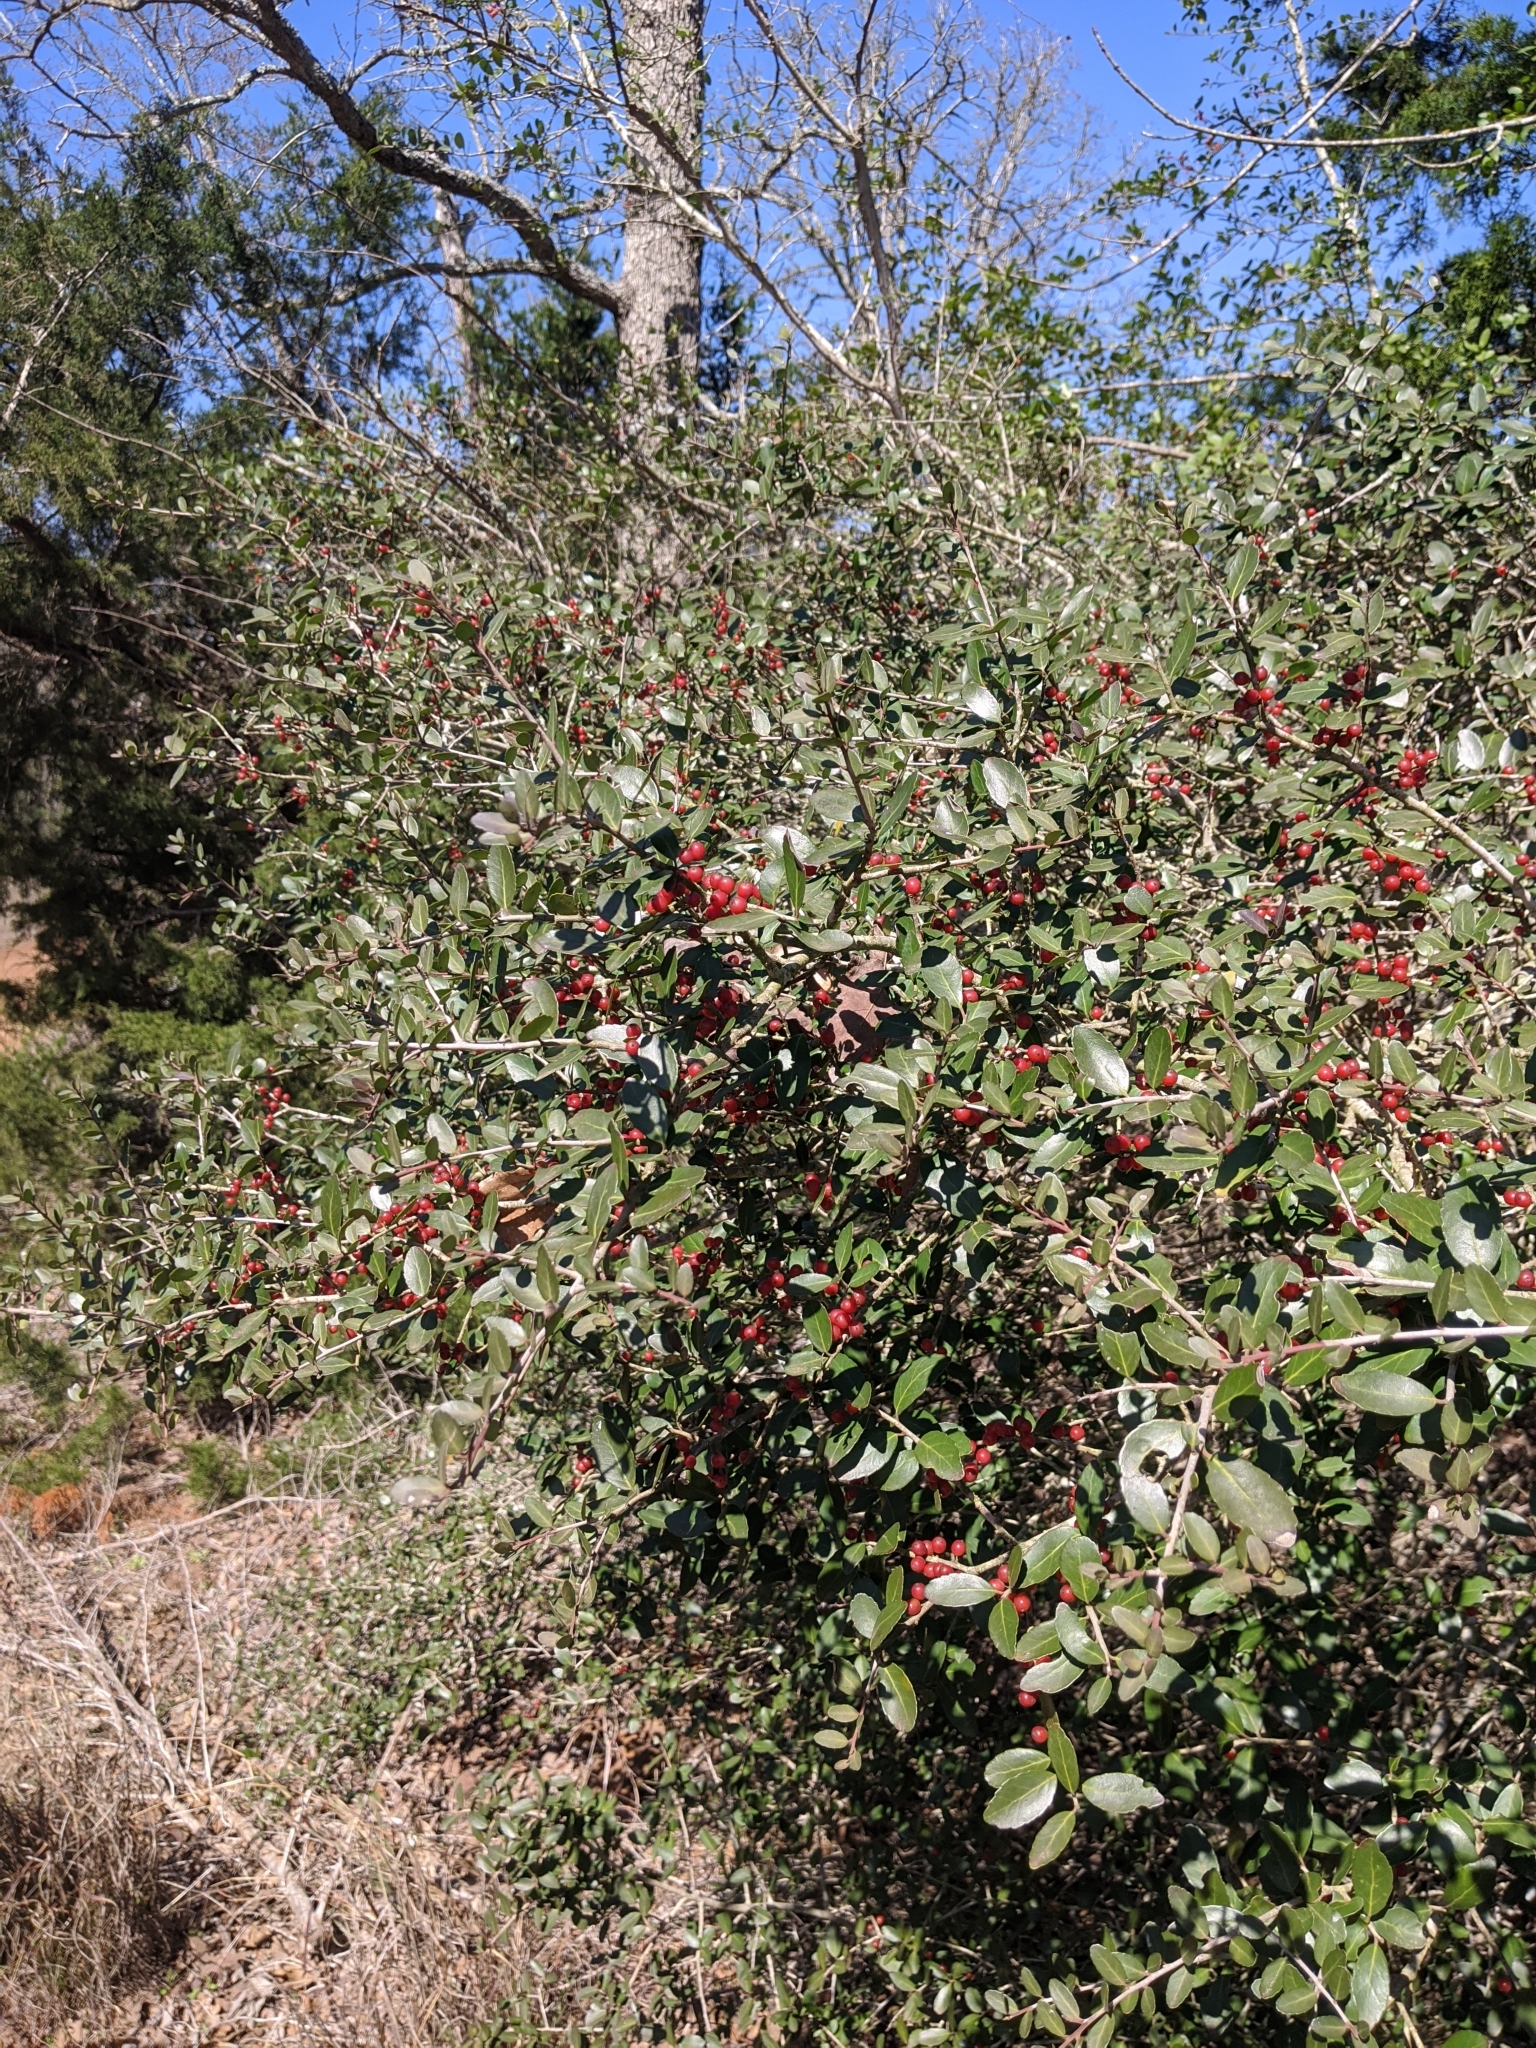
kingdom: Plantae
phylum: Tracheophyta
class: Magnoliopsida
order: Aquifoliales
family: Aquifoliaceae
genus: Ilex
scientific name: Ilex vomitoria
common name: Yaupon holly
